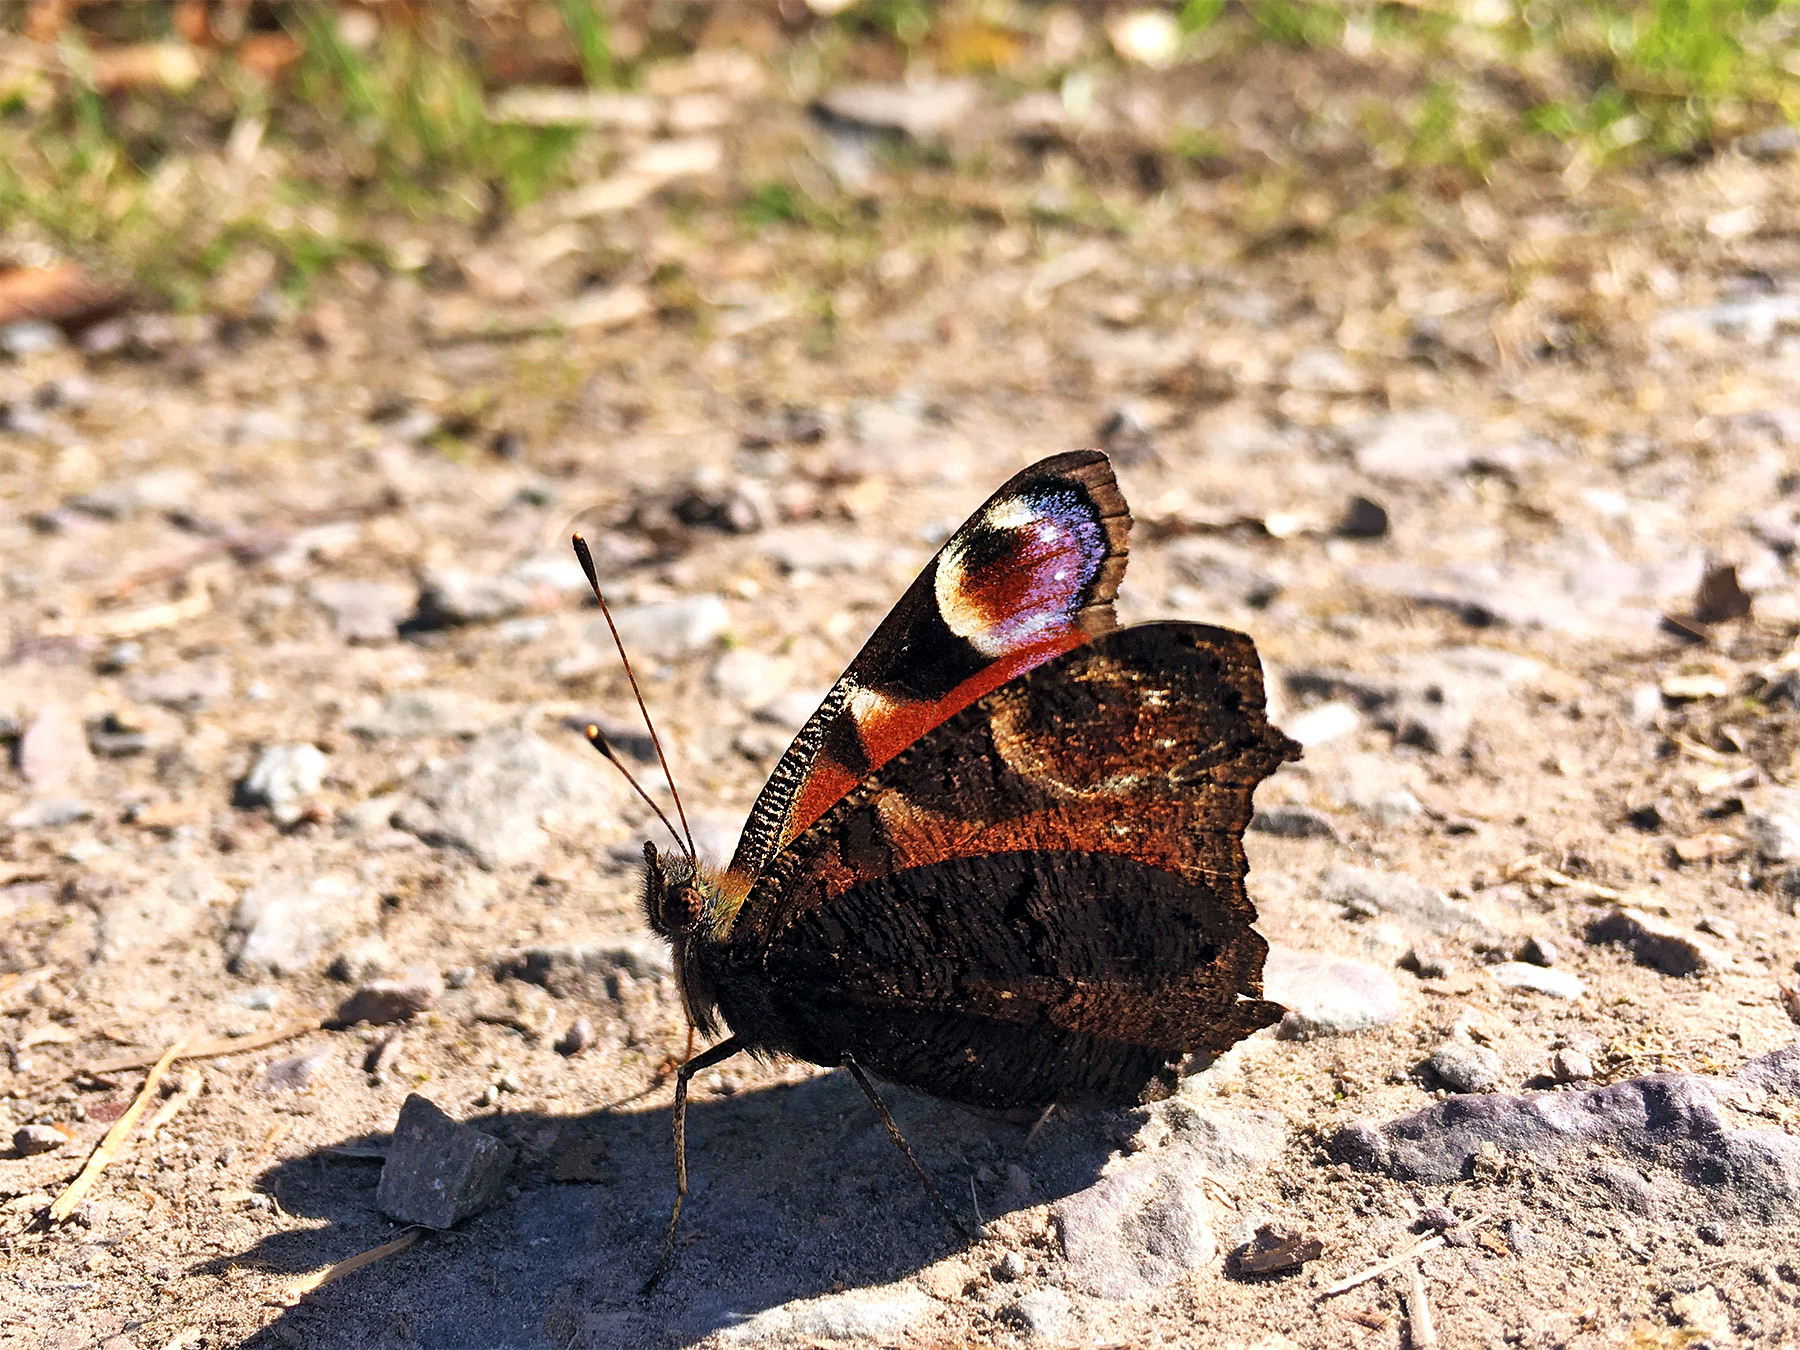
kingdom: Animalia
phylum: Arthropoda
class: Insecta
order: Lepidoptera
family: Nymphalidae
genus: Aglais
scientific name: Aglais io
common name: Peacock
